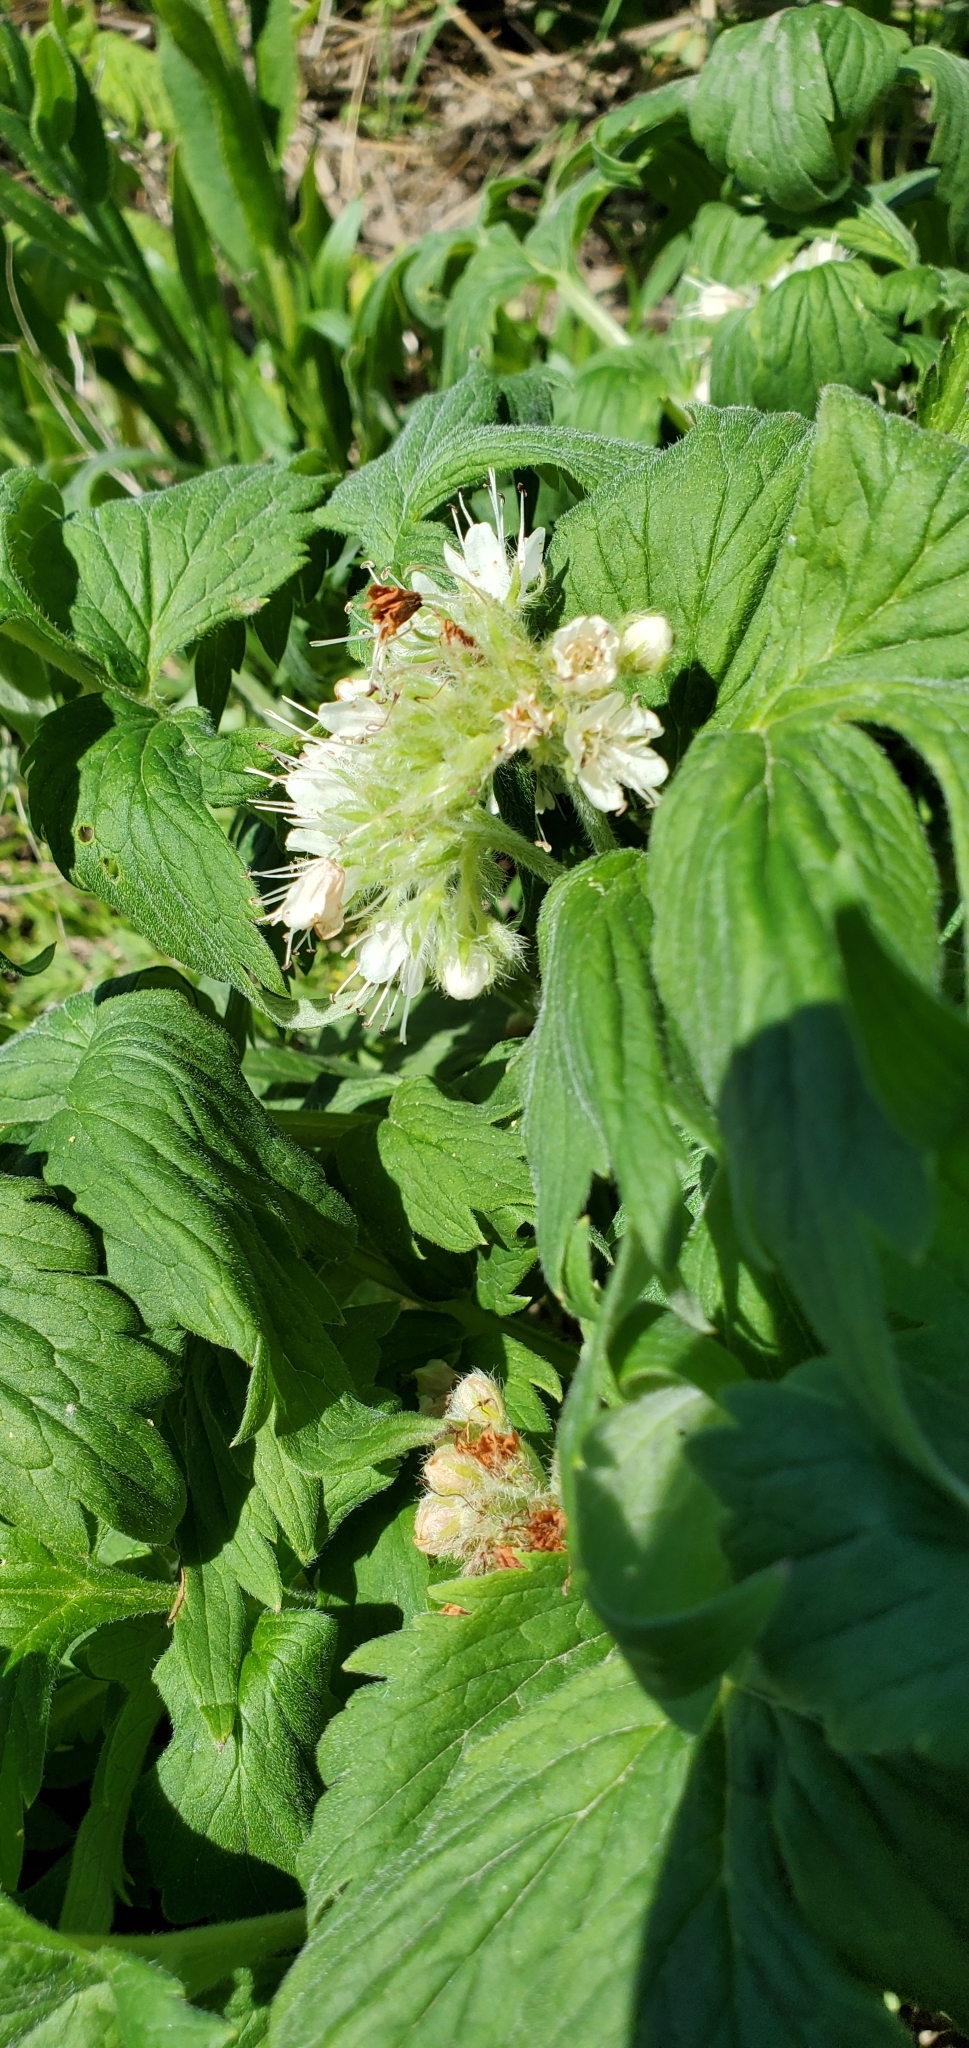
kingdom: Plantae
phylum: Tracheophyta
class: Magnoliopsida
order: Boraginales
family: Hydrophyllaceae
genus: Hydrophyllum
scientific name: Hydrophyllum fendleri
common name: Fendler's waterleaf
